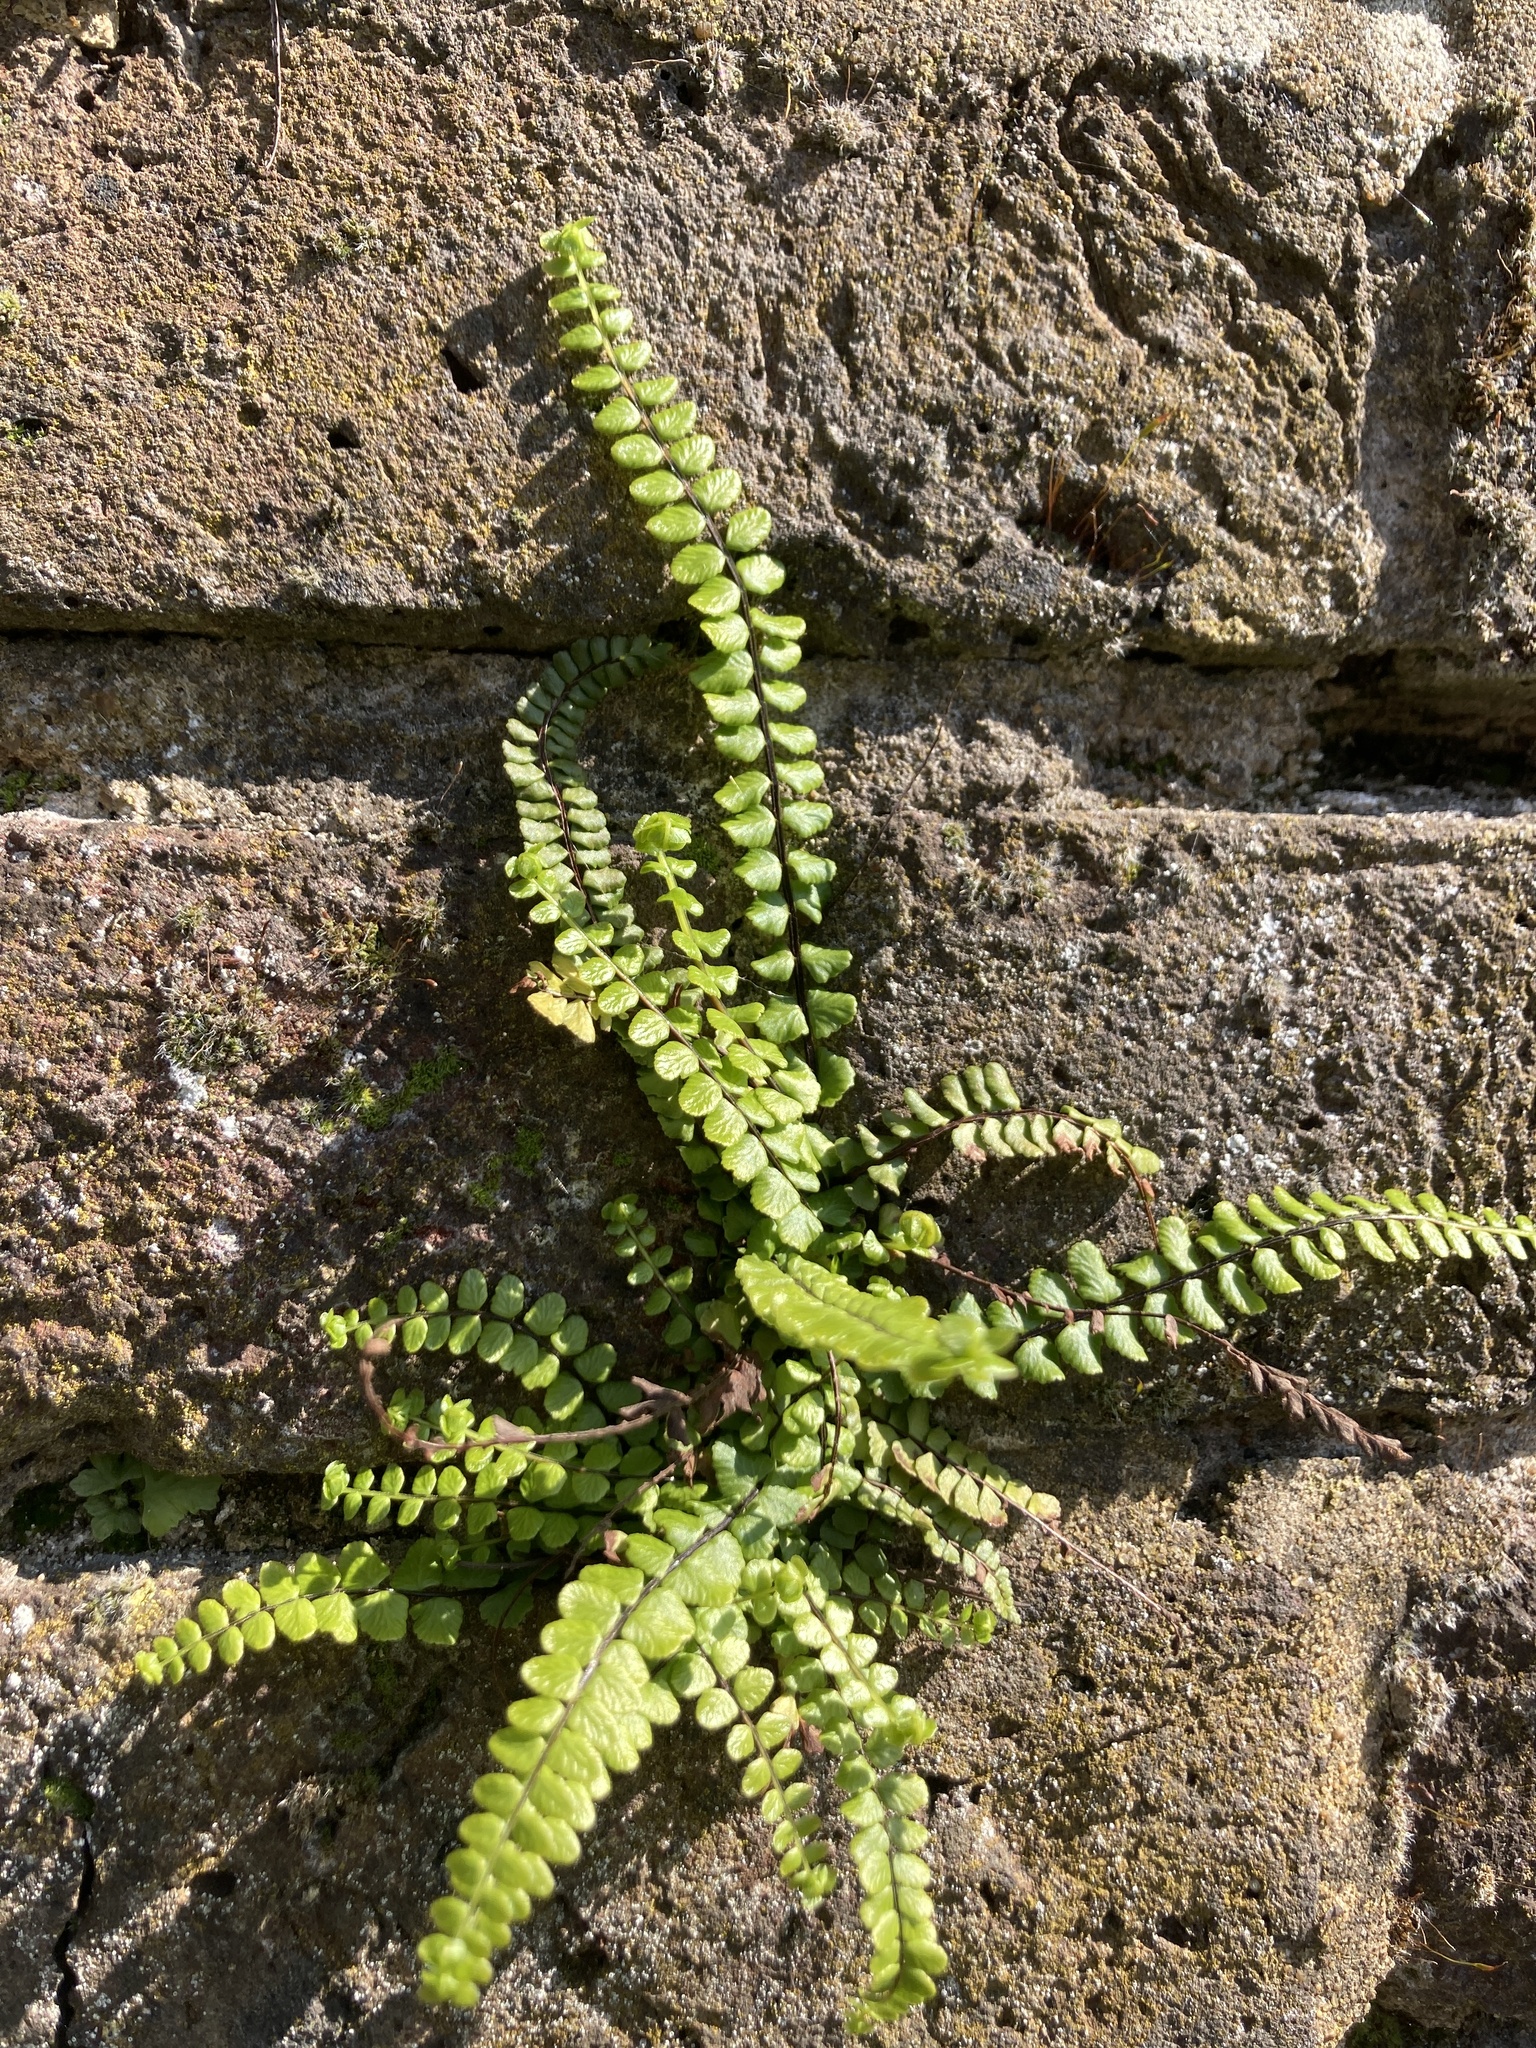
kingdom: Plantae
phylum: Tracheophyta
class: Polypodiopsida
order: Polypodiales
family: Aspleniaceae
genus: Asplenium
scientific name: Asplenium trichomanes
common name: Maidenhair spleenwort
